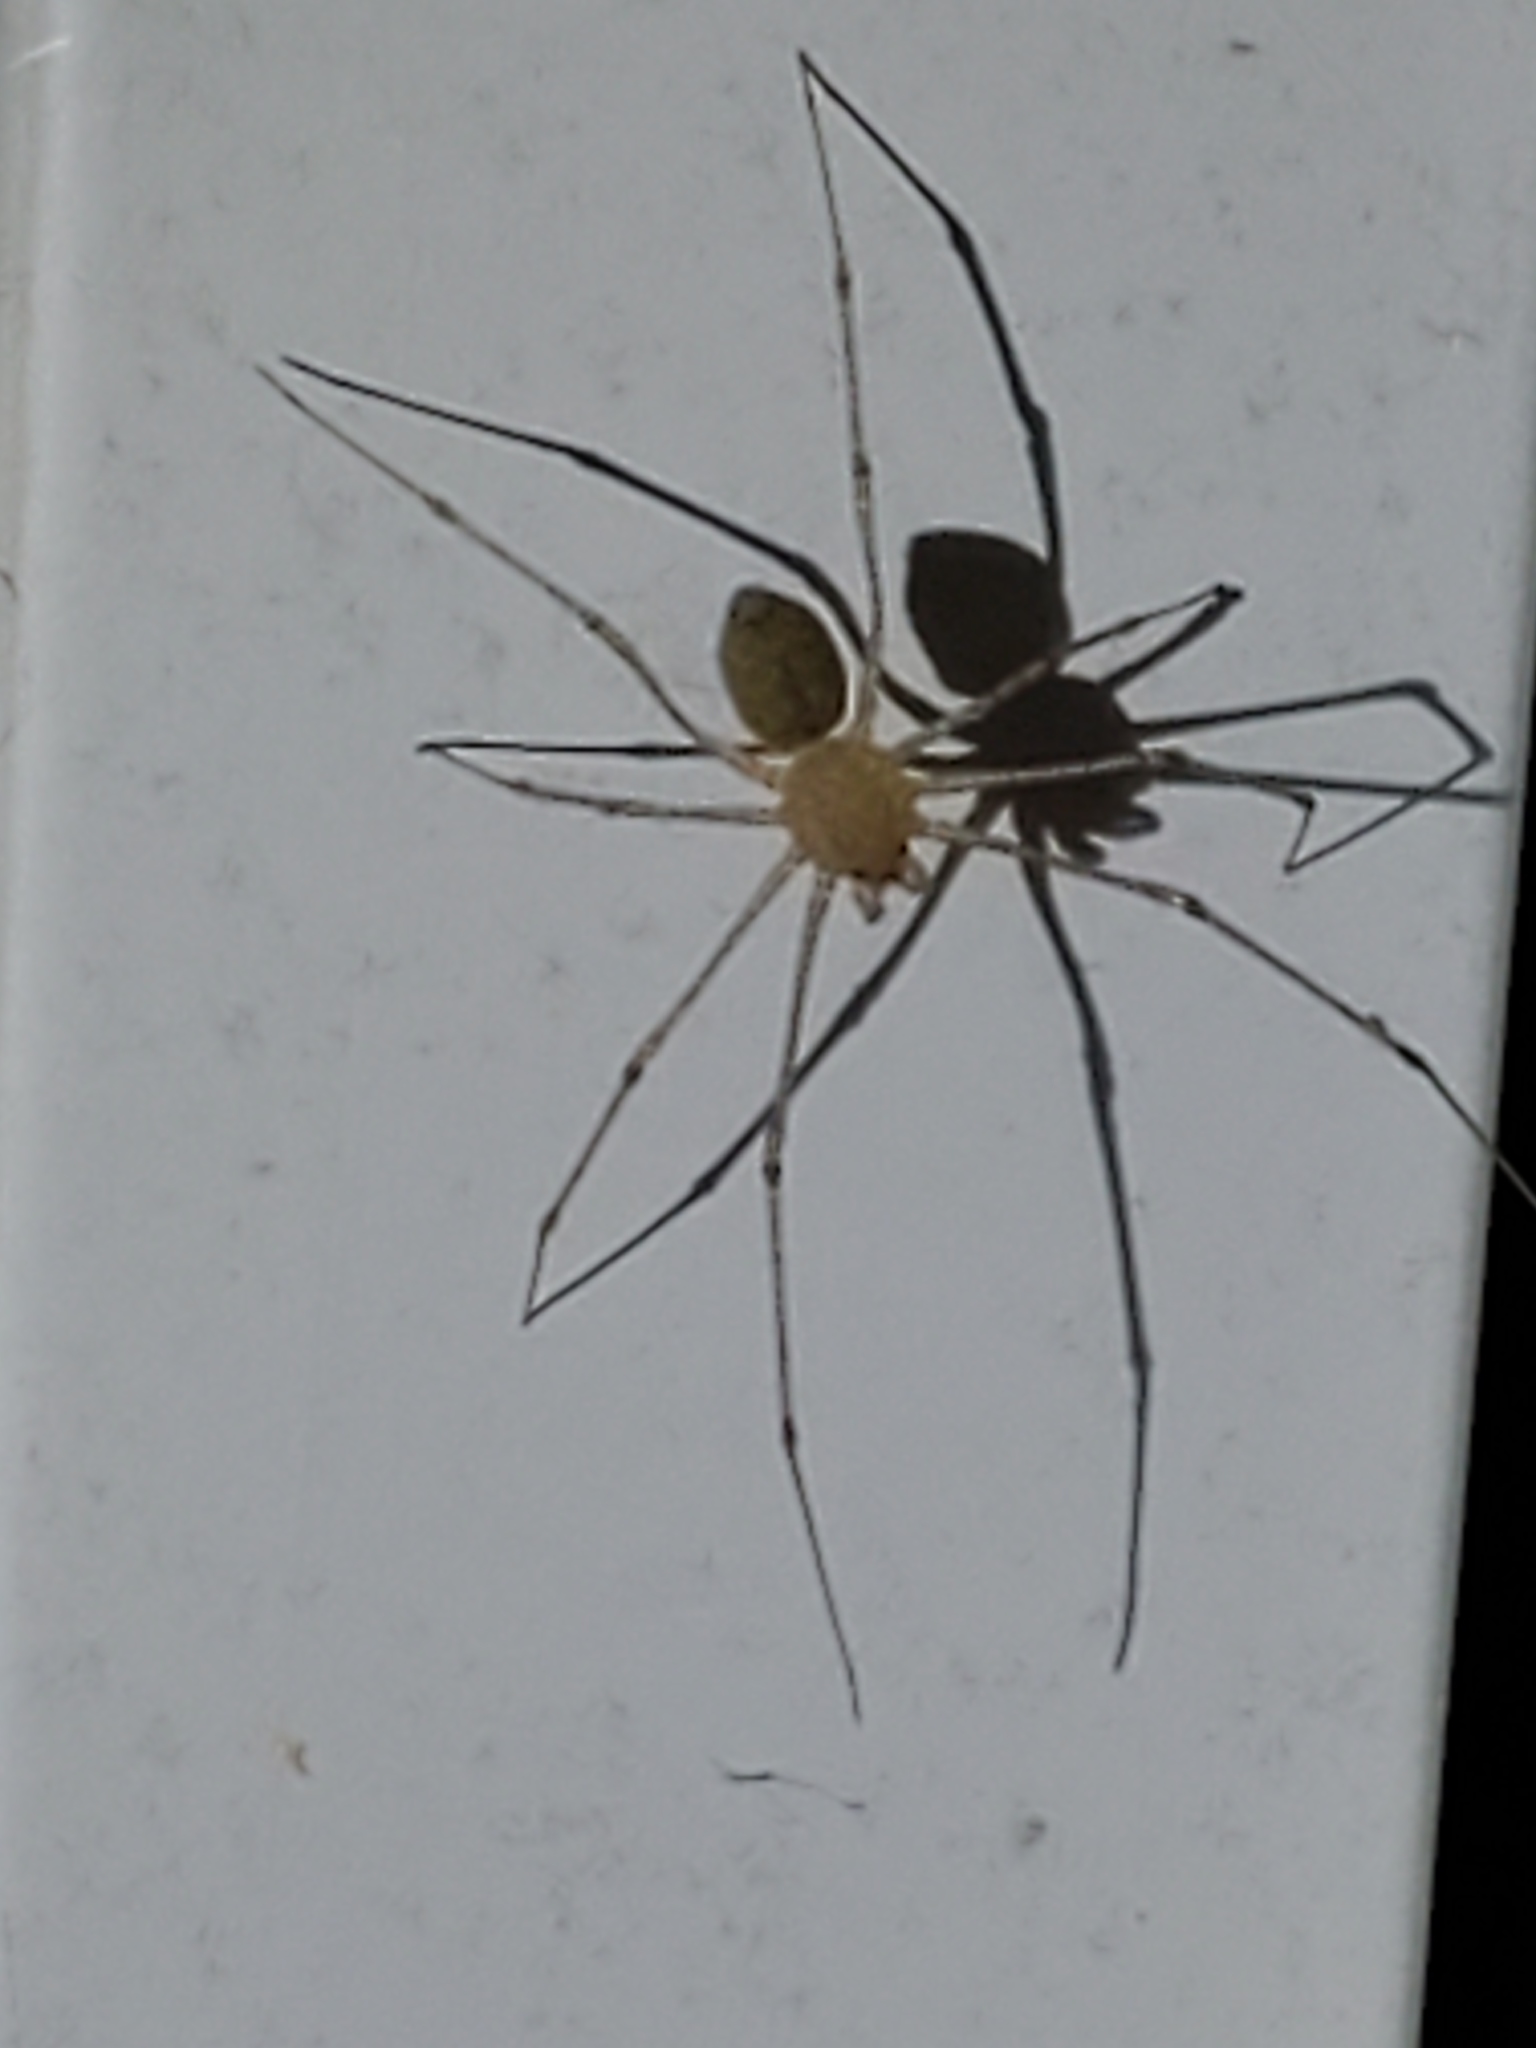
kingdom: Animalia
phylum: Arthropoda
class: Arachnida
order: Araneae
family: Scytodidae
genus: Scytodes
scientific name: Scytodes atlacoya
